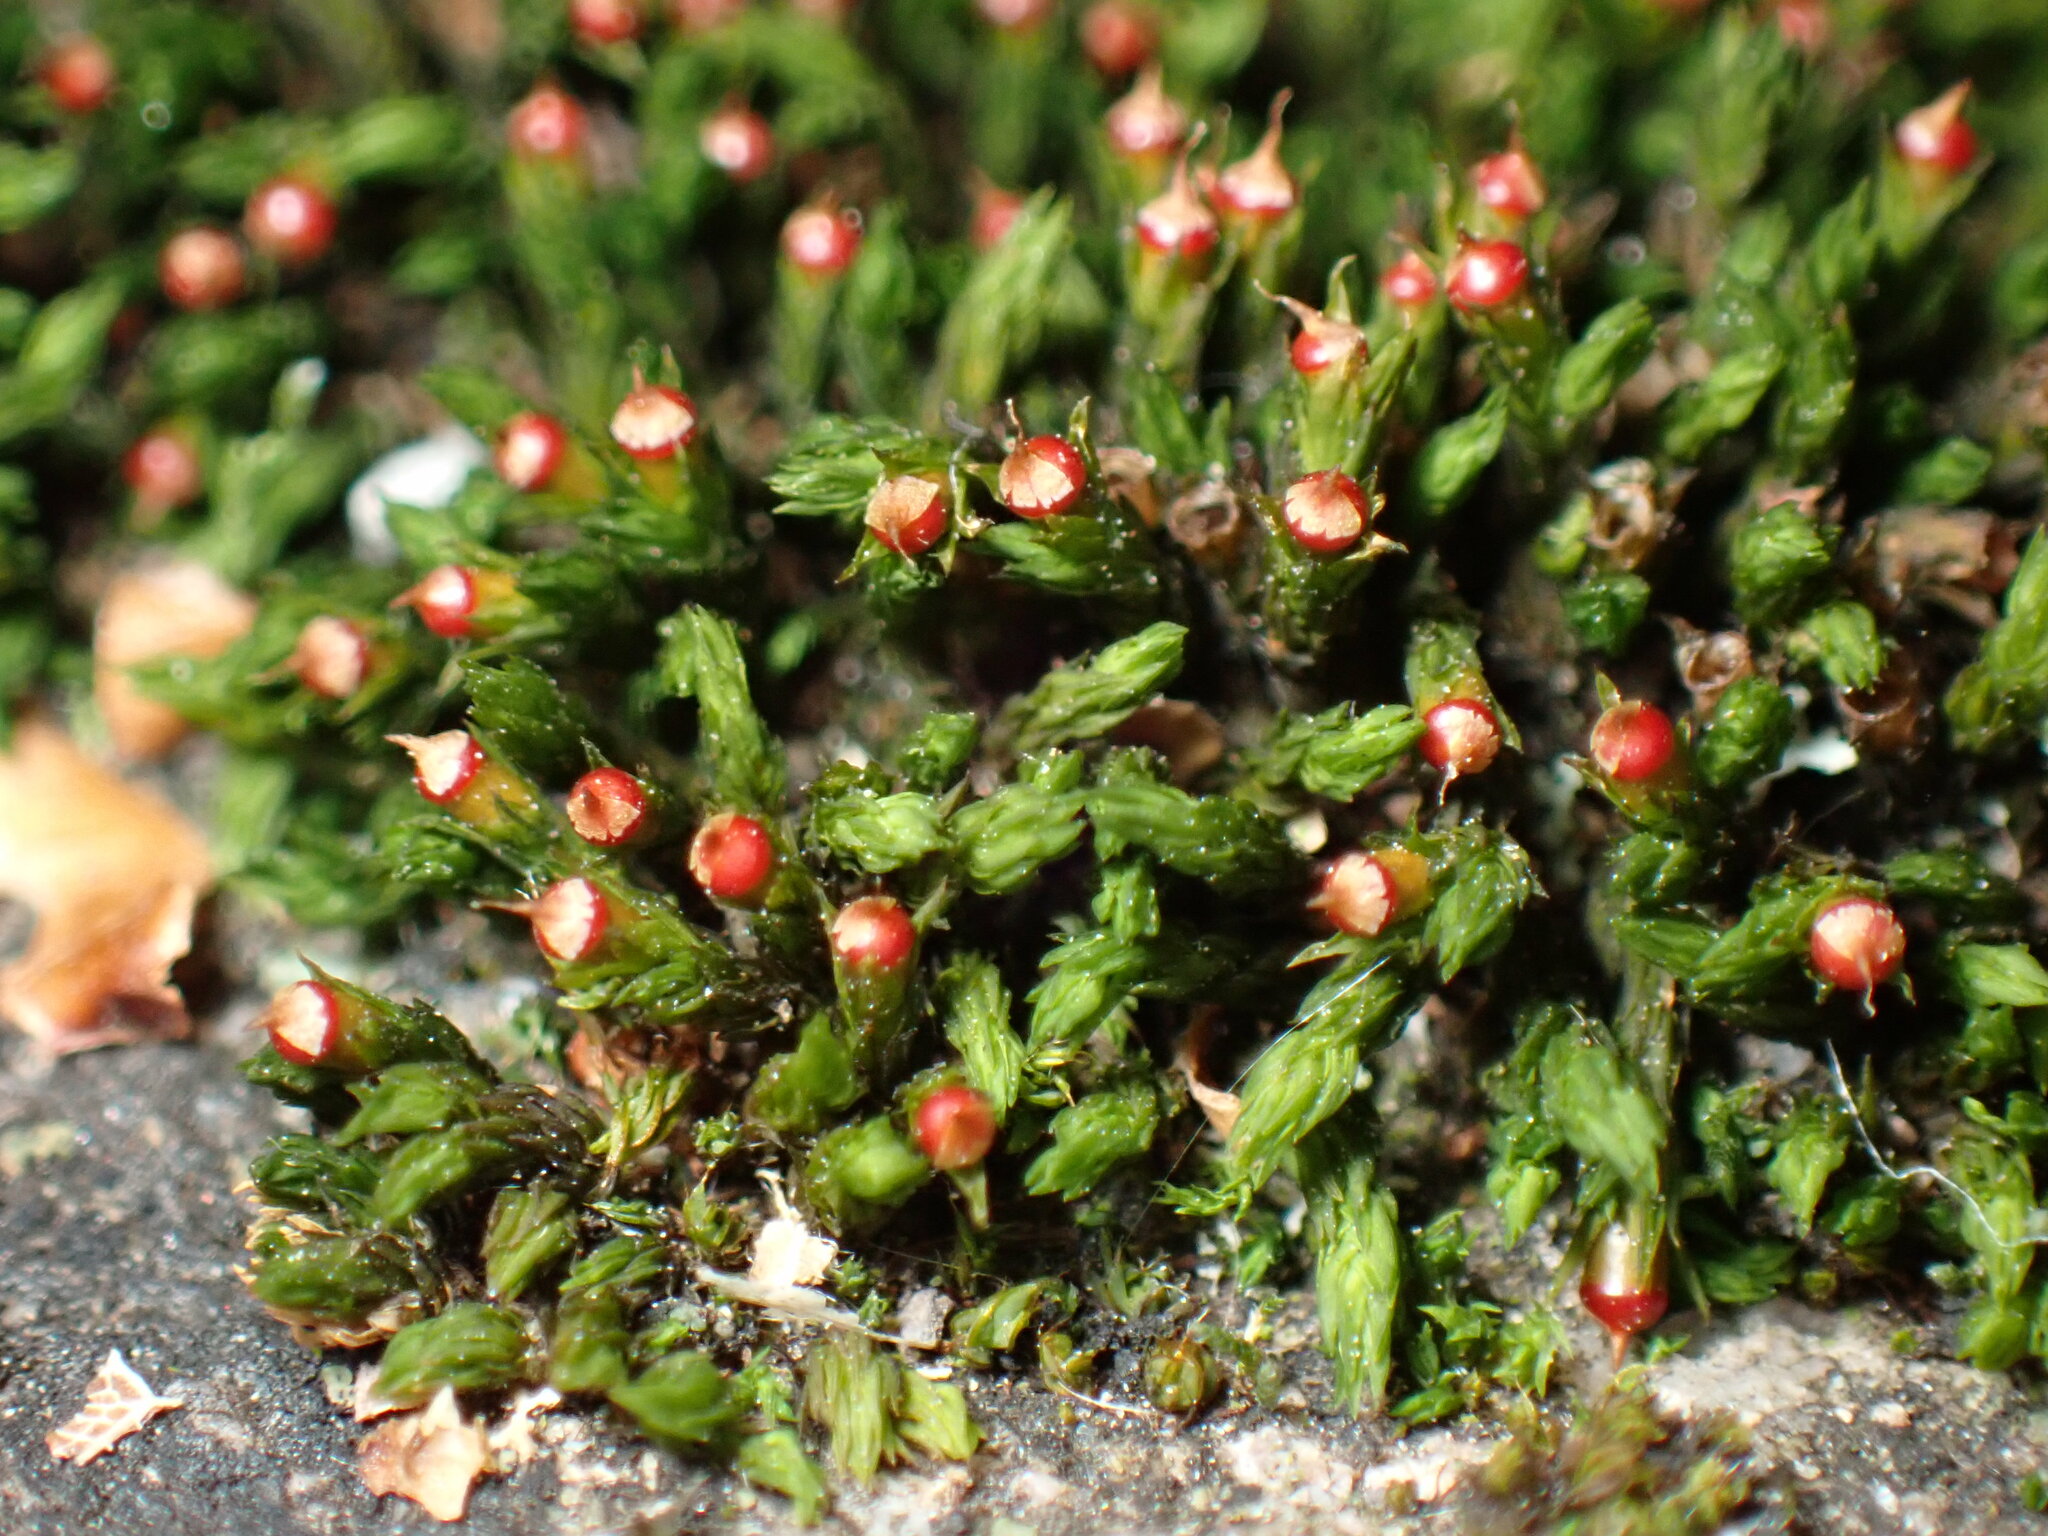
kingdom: Plantae
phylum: Bryophyta
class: Bryopsida
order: Grimmiales
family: Grimmiaceae
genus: Schistidium
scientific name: Schistidium apocarpum
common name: Radiate bloom moss
